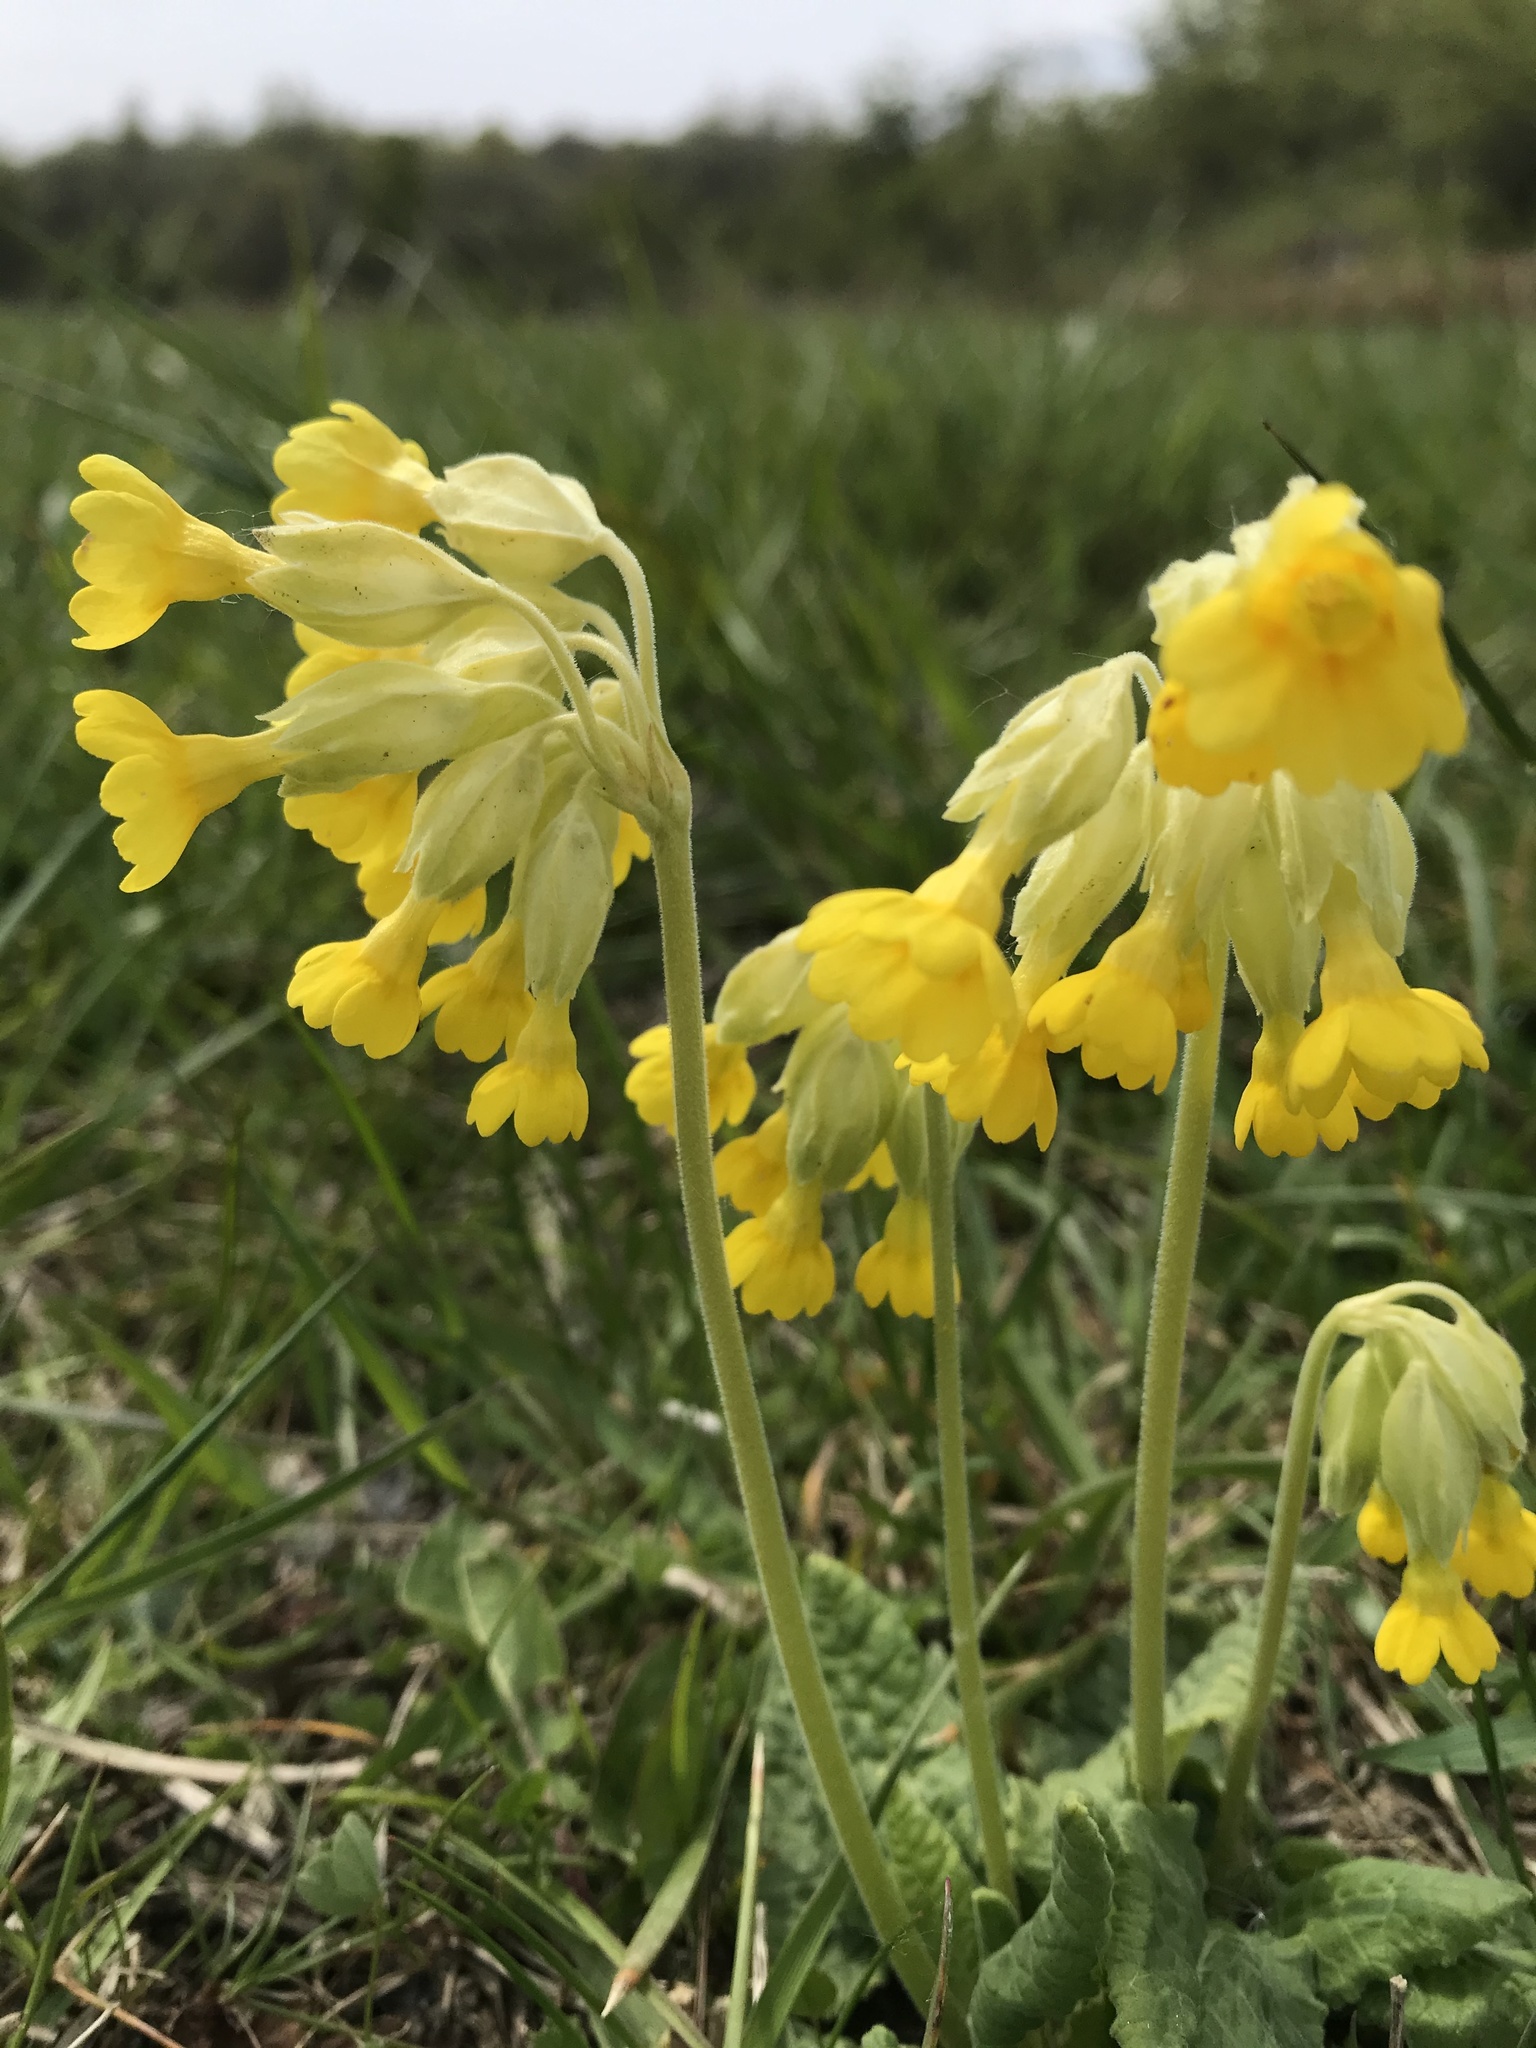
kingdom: Plantae
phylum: Tracheophyta
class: Magnoliopsida
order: Ericales
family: Primulaceae
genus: Primula
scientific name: Primula veris
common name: Cowslip
